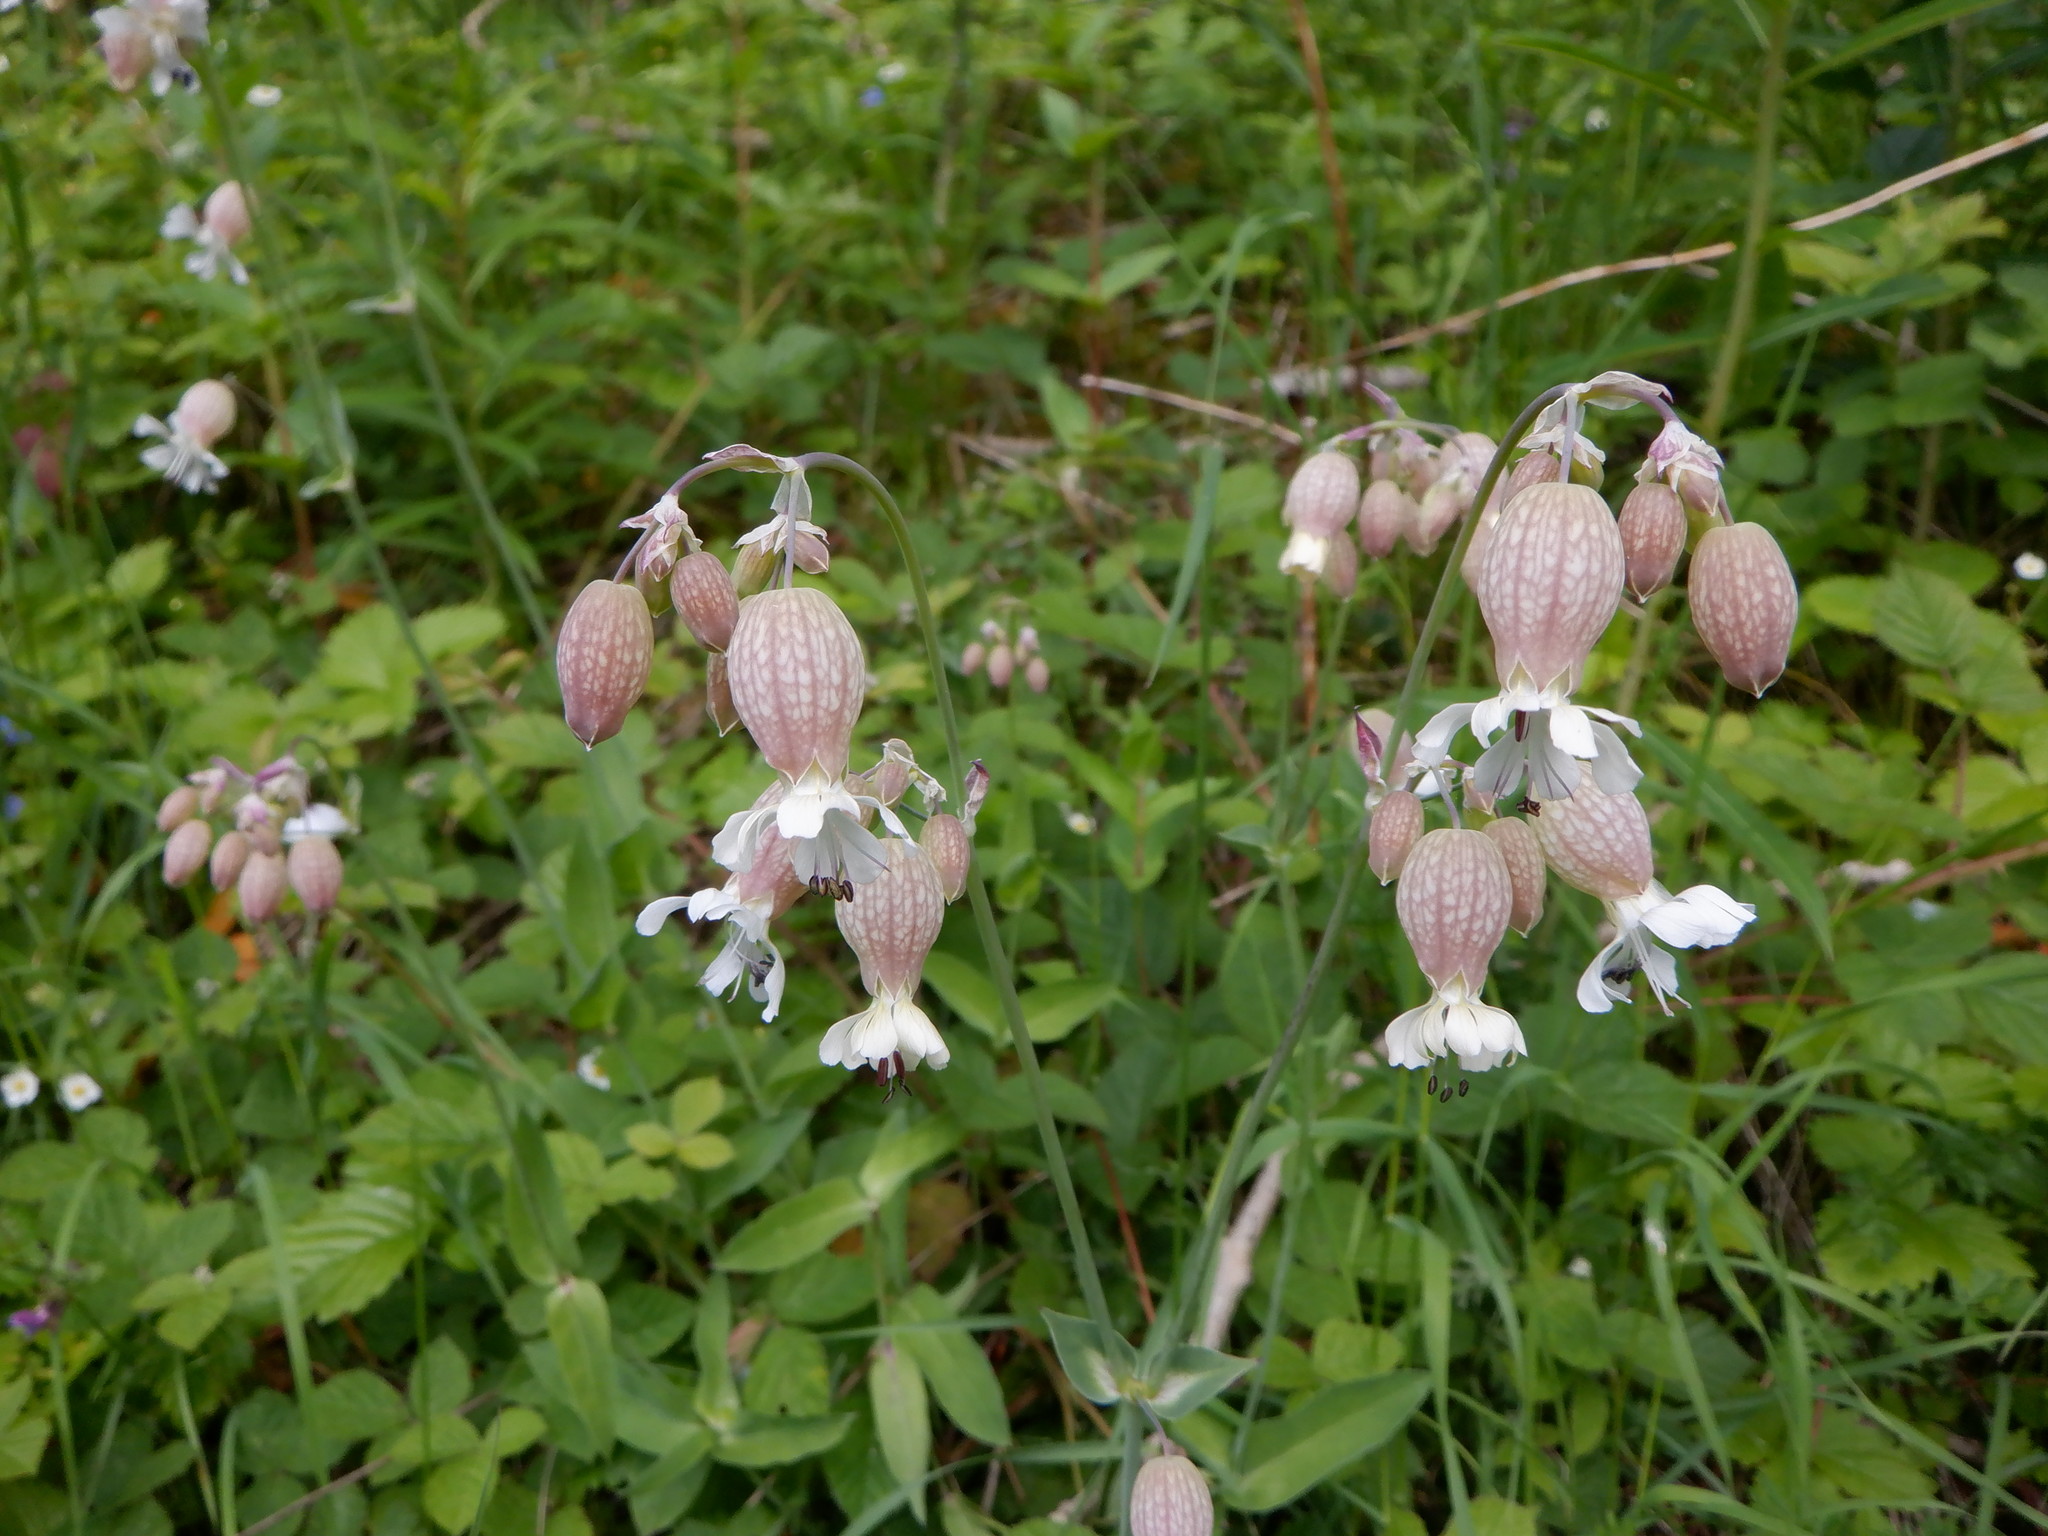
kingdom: Plantae
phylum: Tracheophyta
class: Magnoliopsida
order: Caryophyllales
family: Caryophyllaceae
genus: Silene
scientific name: Silene vulgaris
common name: Bladder campion
